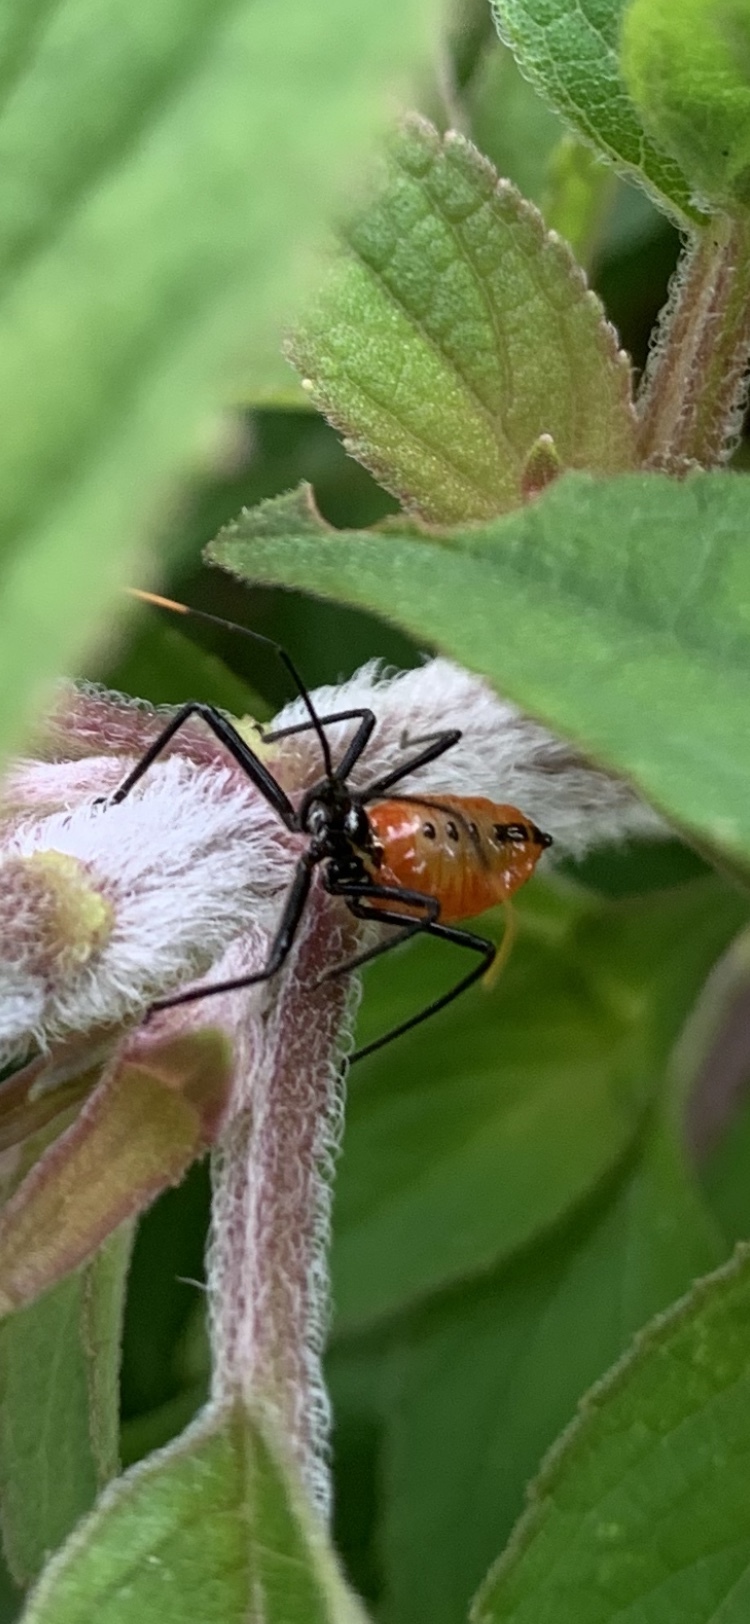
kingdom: Animalia
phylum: Arthropoda
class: Insecta
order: Hemiptera
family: Reduviidae
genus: Arilus
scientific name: Arilus cristatus
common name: North american wheel bug
